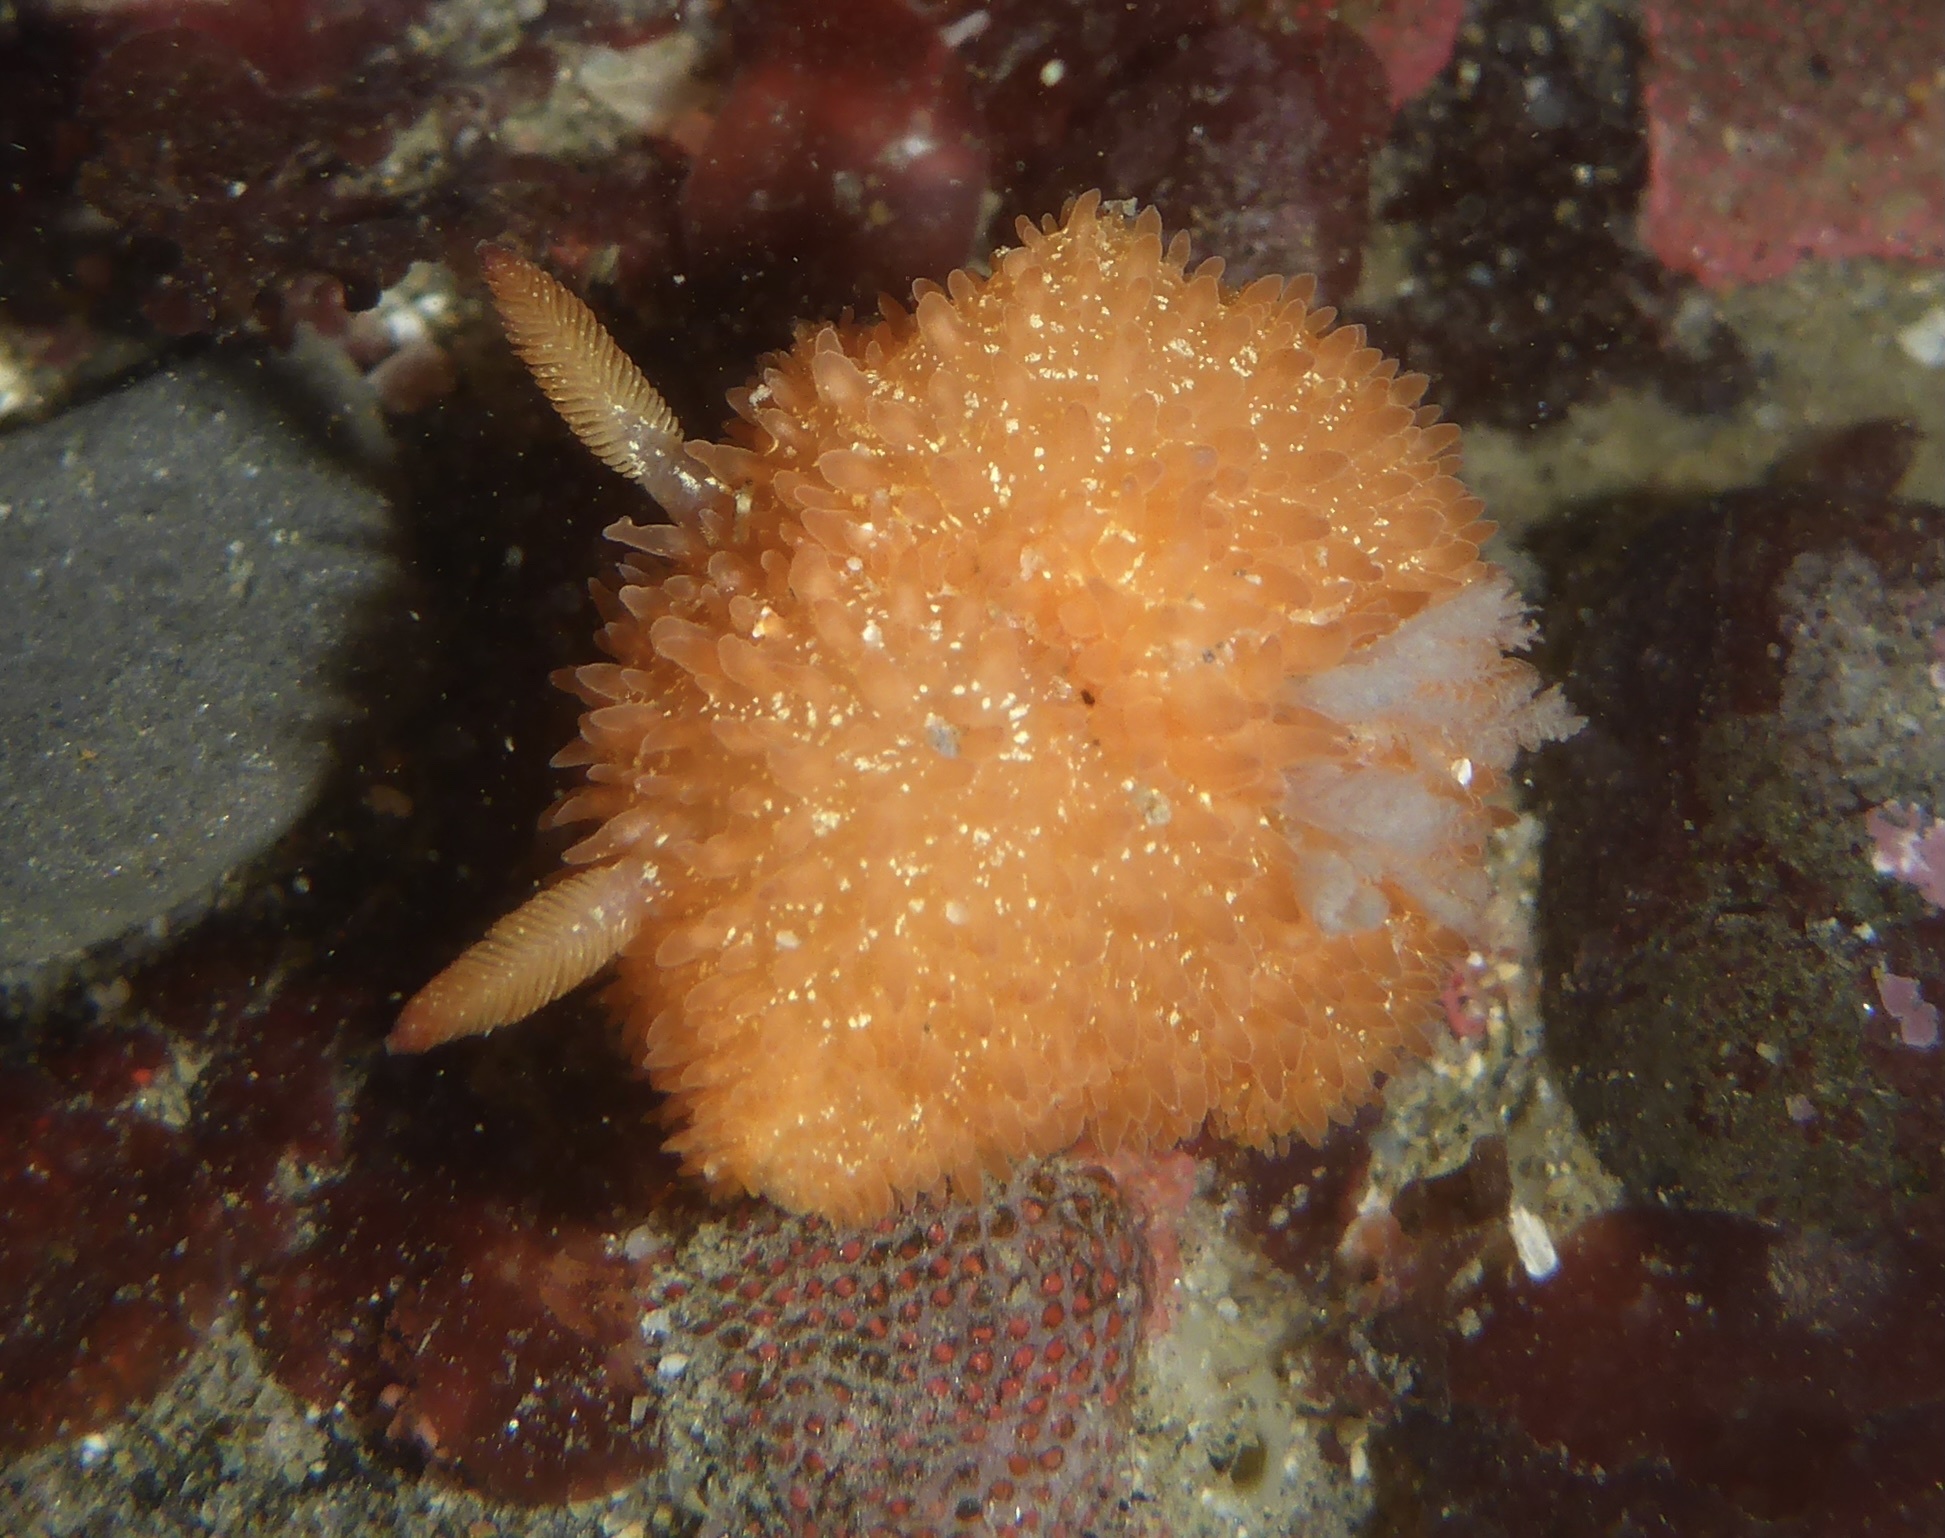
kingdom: Animalia
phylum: Mollusca
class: Gastropoda
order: Nudibranchia
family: Onchidorididae
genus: Acanthodoris
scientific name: Acanthodoris lutea
